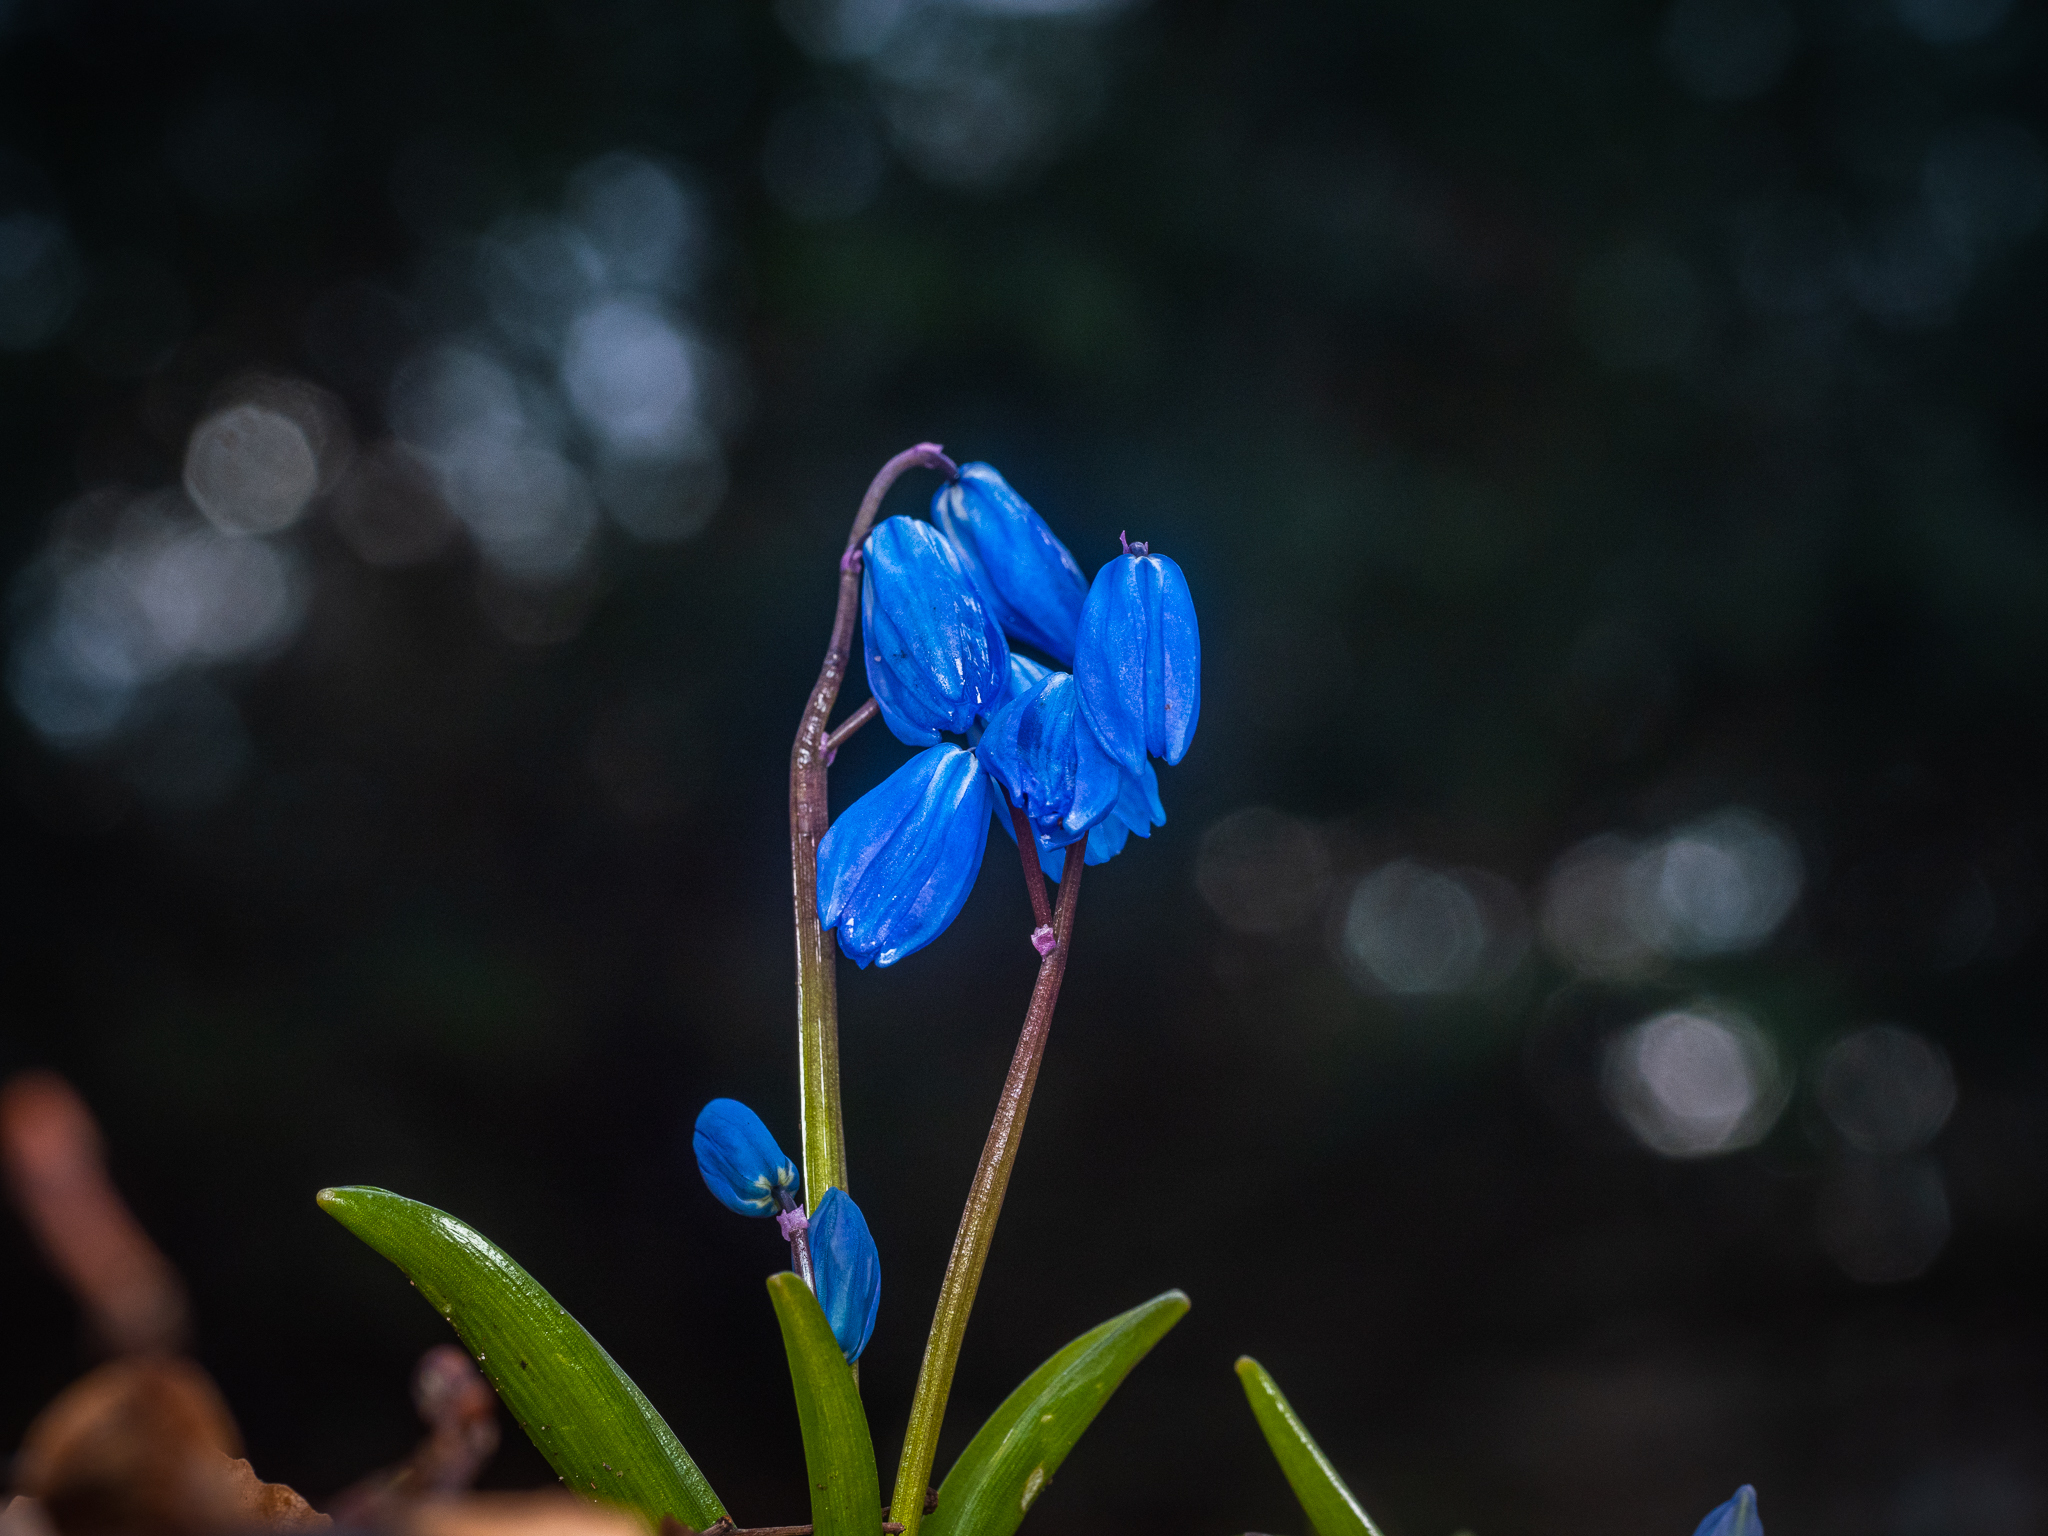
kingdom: Plantae
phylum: Tracheophyta
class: Liliopsida
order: Asparagales
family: Asparagaceae
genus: Scilla
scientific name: Scilla siberica
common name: Siberian squill
